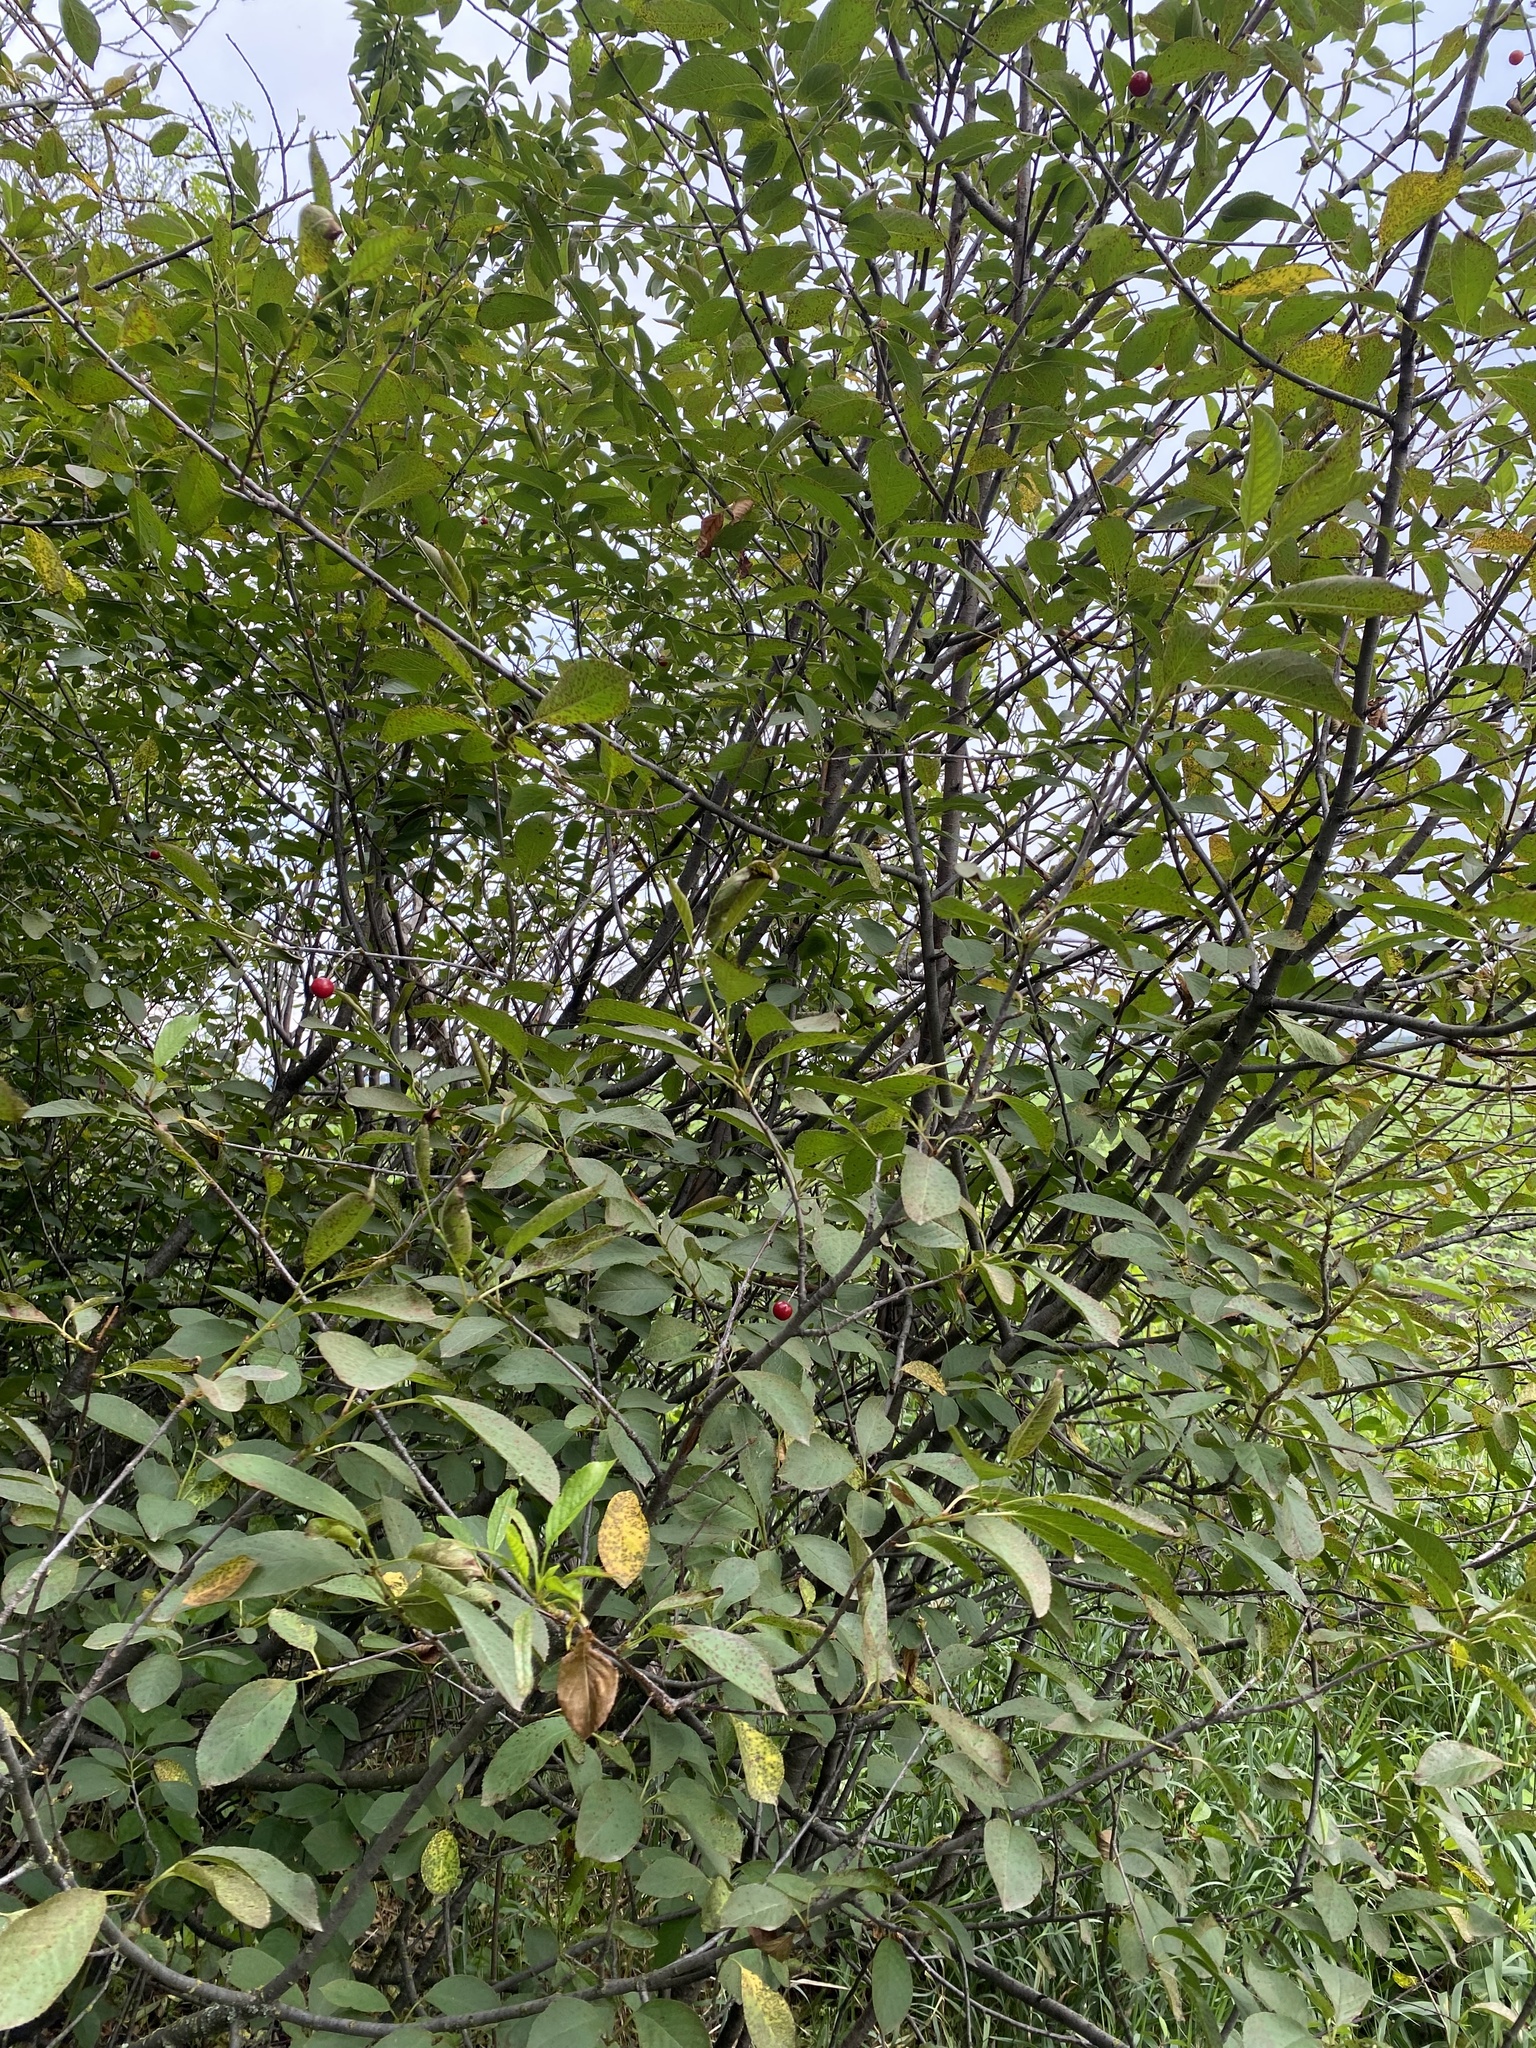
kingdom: Plantae
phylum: Tracheophyta
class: Magnoliopsida
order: Rosales
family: Rosaceae
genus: Prunus
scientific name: Prunus cerasus
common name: Morello cherry
